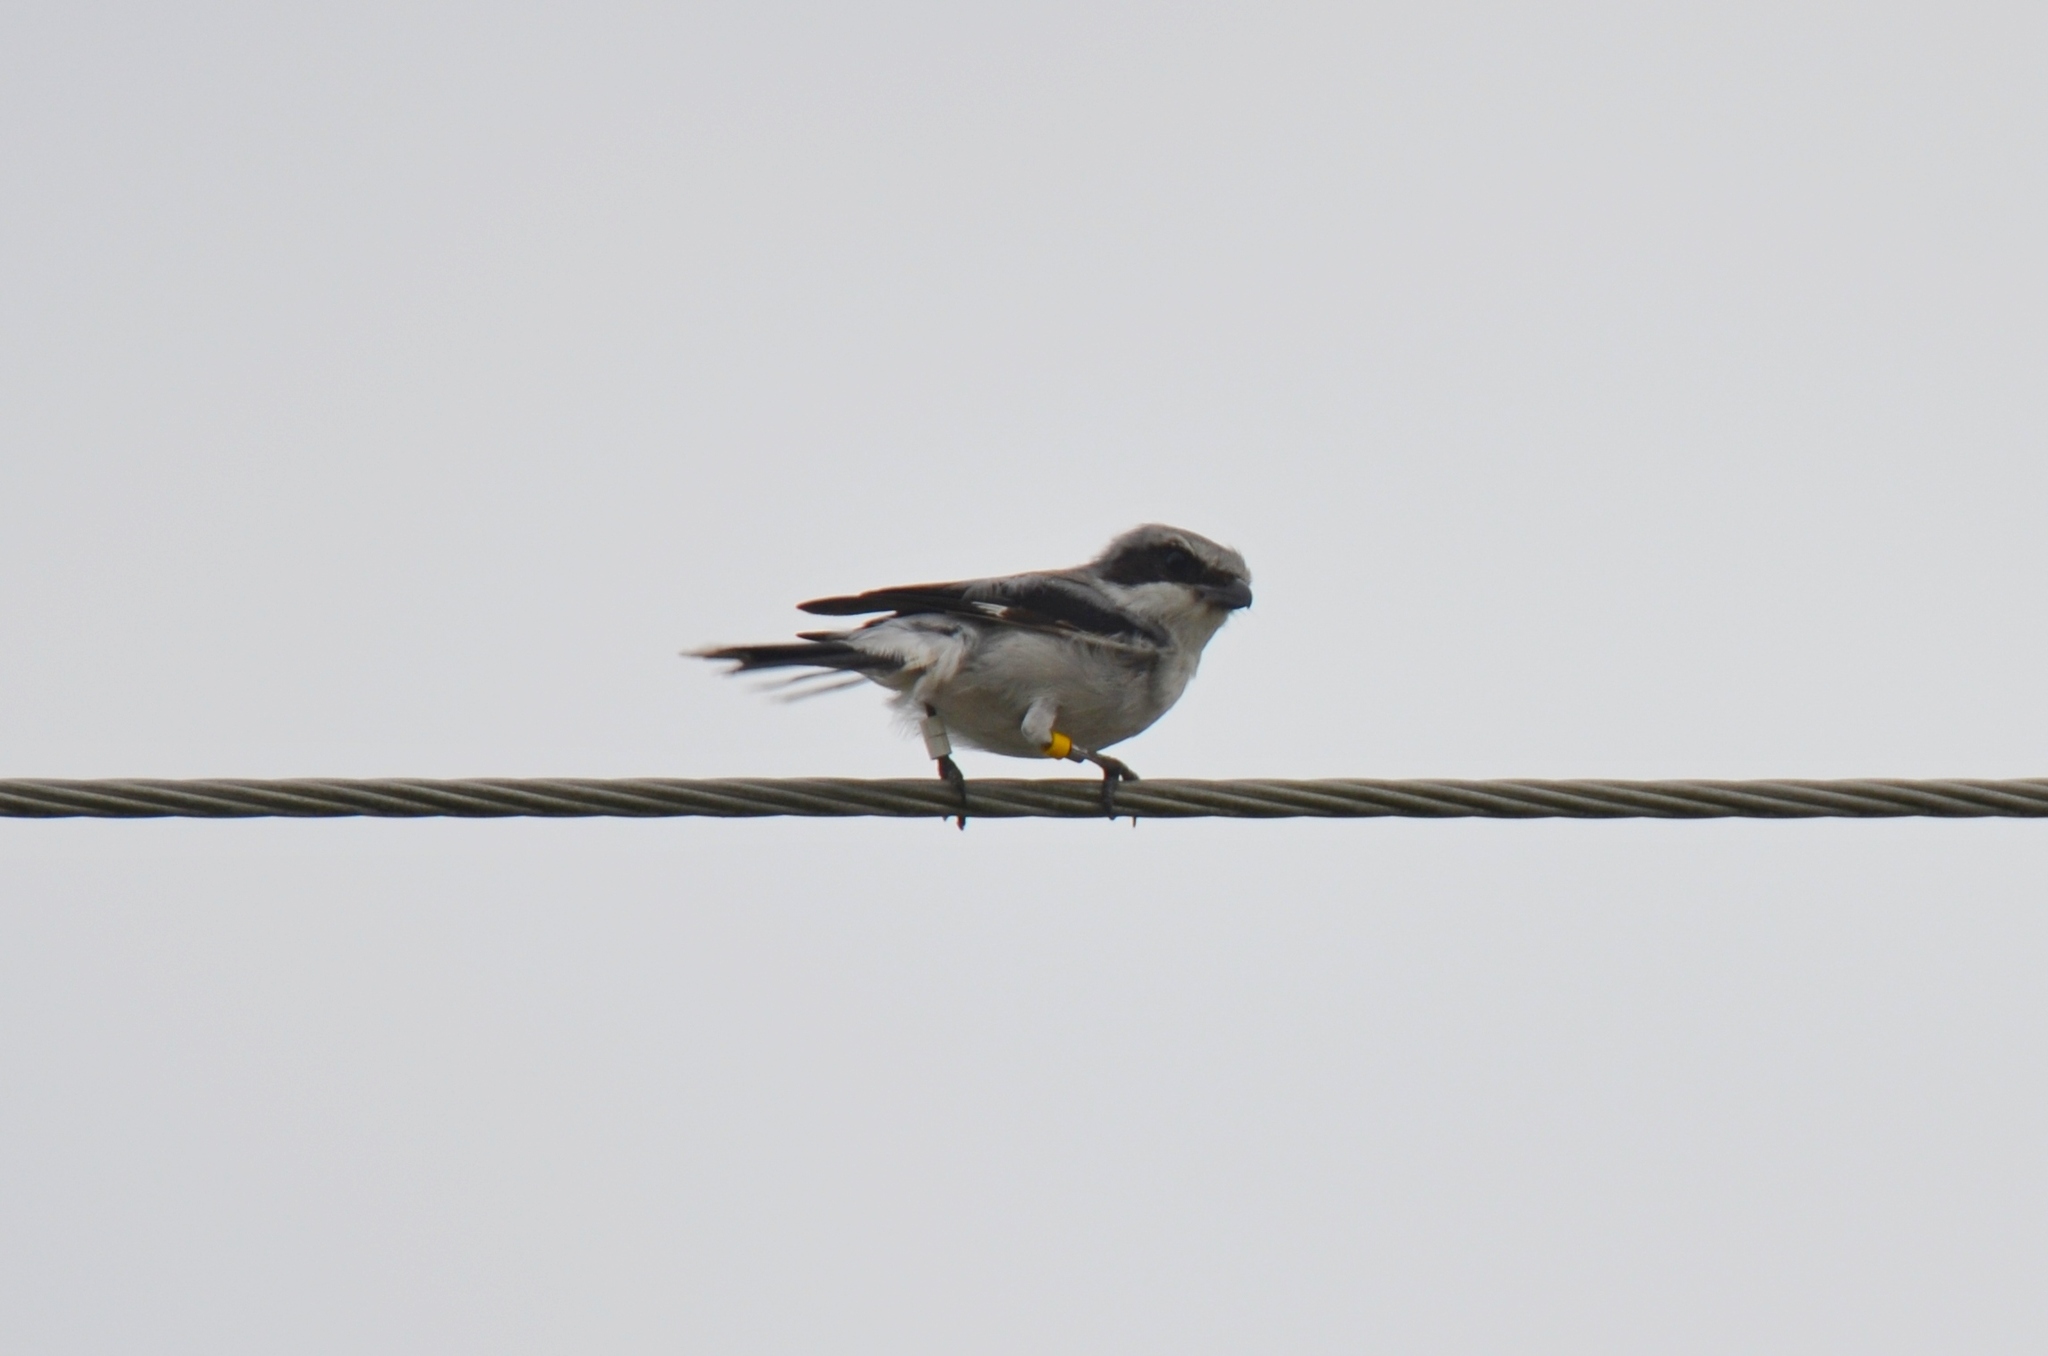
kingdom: Animalia
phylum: Chordata
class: Aves
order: Passeriformes
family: Laniidae
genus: Lanius
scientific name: Lanius ludovicianus
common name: Loggerhead shrike
